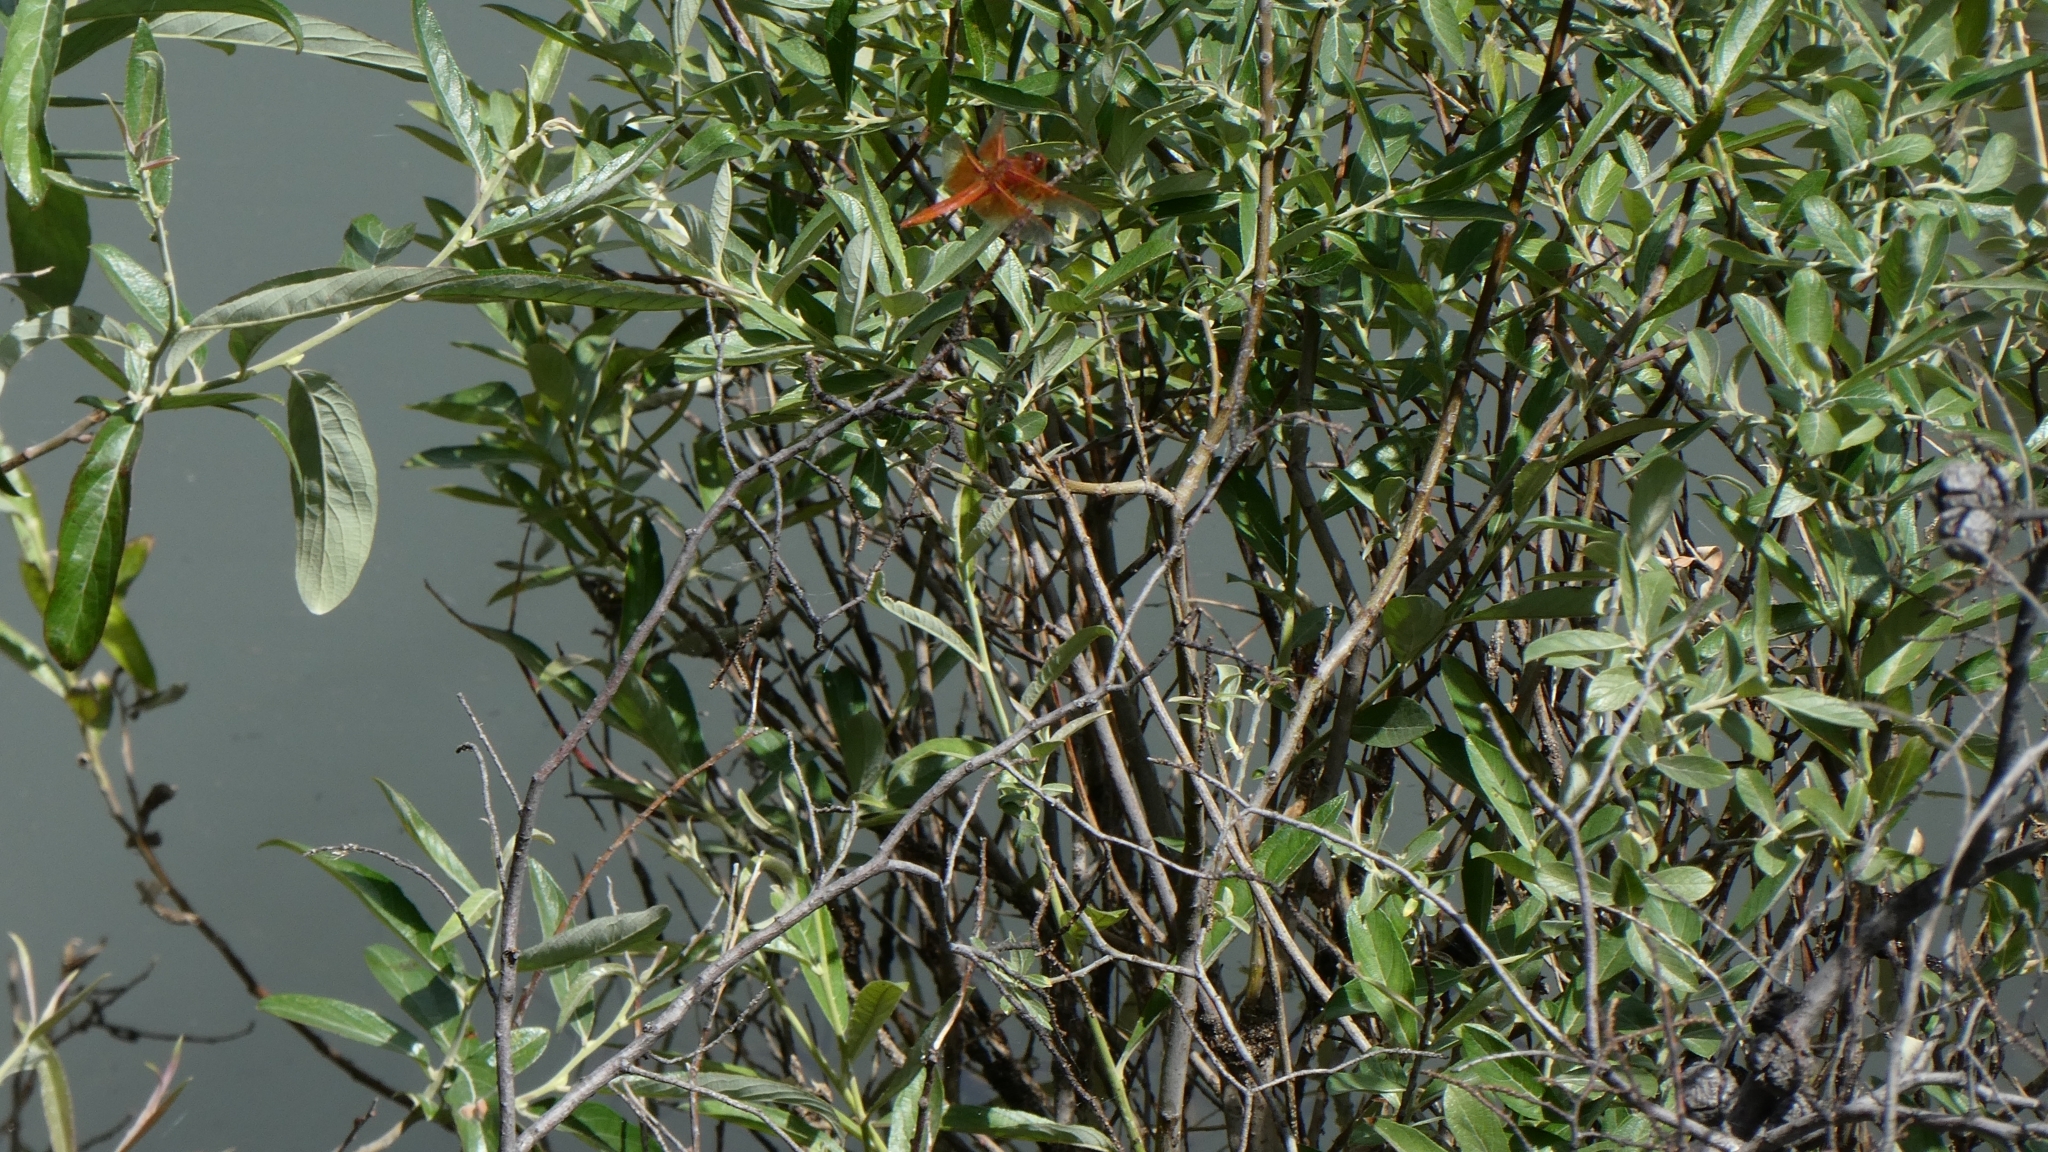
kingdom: Animalia
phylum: Arthropoda
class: Insecta
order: Odonata
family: Libellulidae
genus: Libellula
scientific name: Libellula saturata
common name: Flame skimmer
